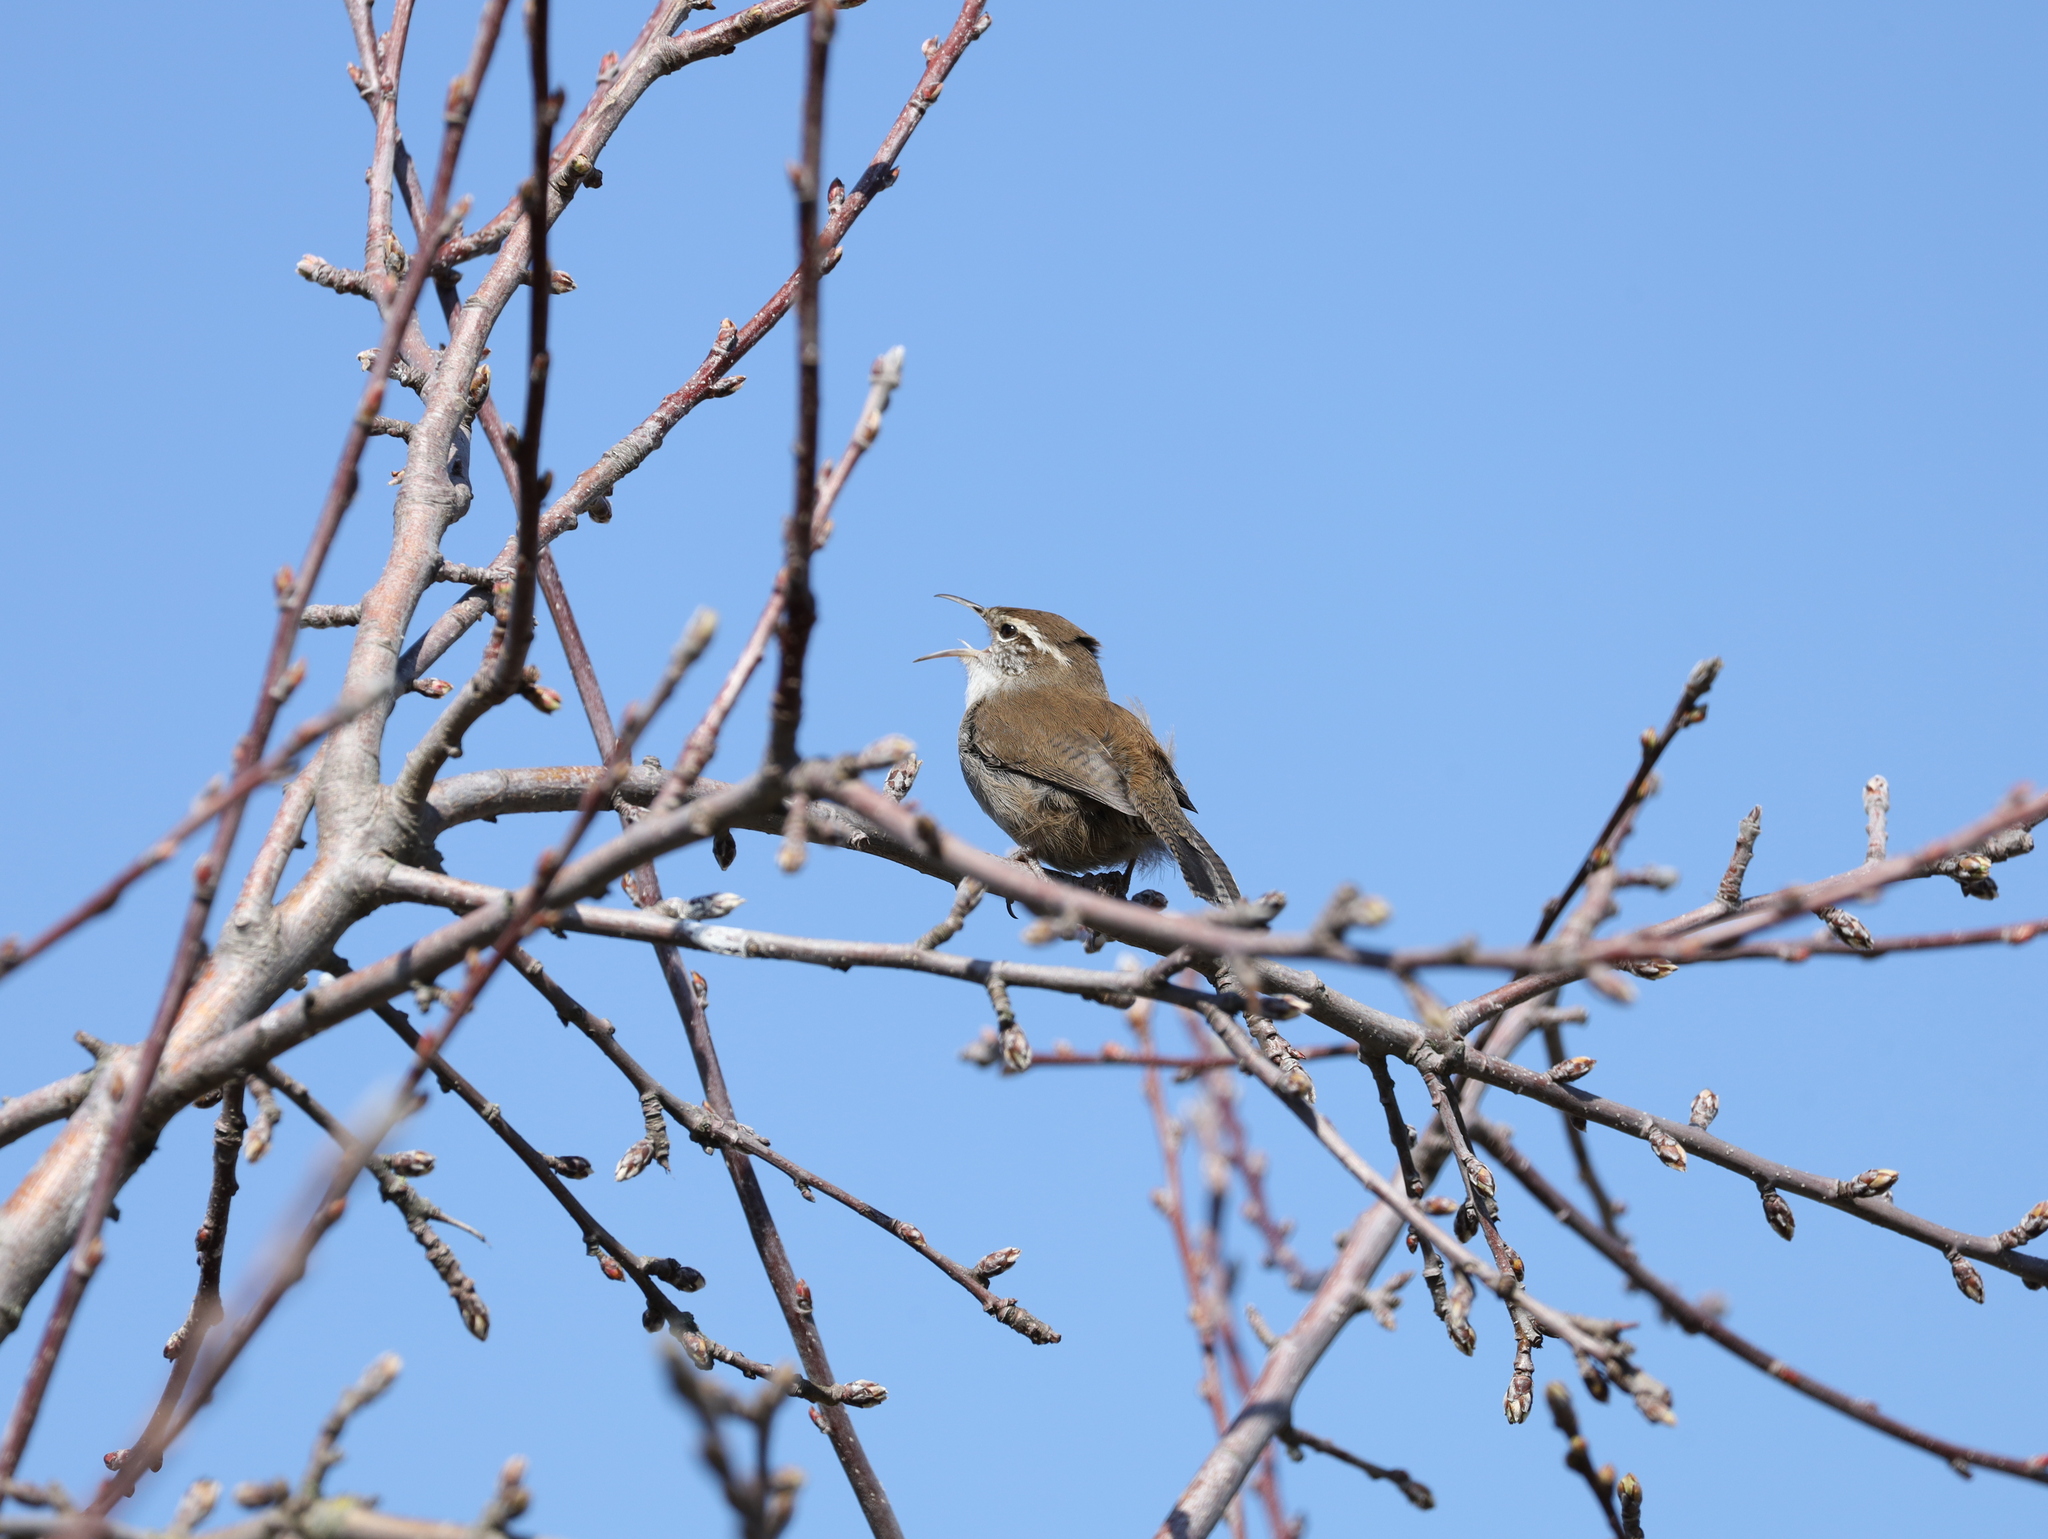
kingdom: Animalia
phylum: Chordata
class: Aves
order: Passeriformes
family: Troglodytidae
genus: Thryomanes
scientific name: Thryomanes bewickii
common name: Bewick's wren
